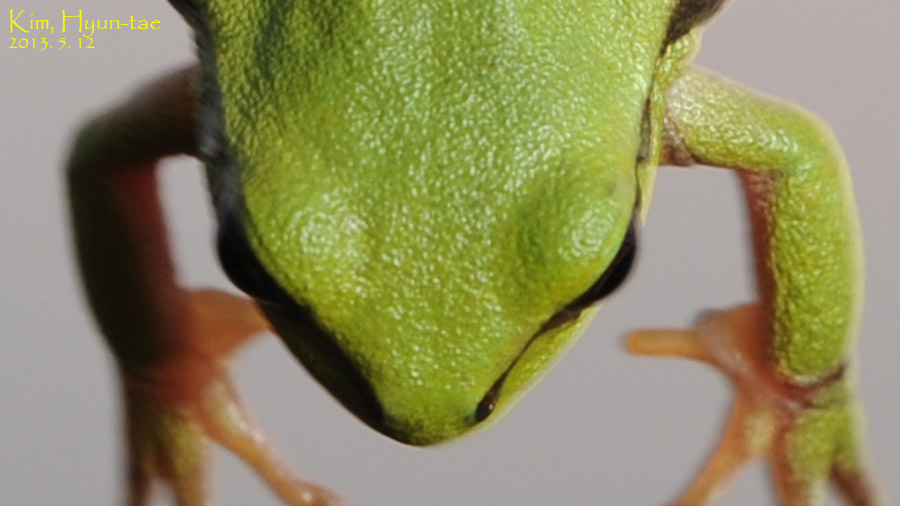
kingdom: Animalia
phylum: Chordata
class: Amphibia
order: Anura
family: Hylidae
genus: Dryophytes
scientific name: Dryophytes immaculatus
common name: North china treefrog
